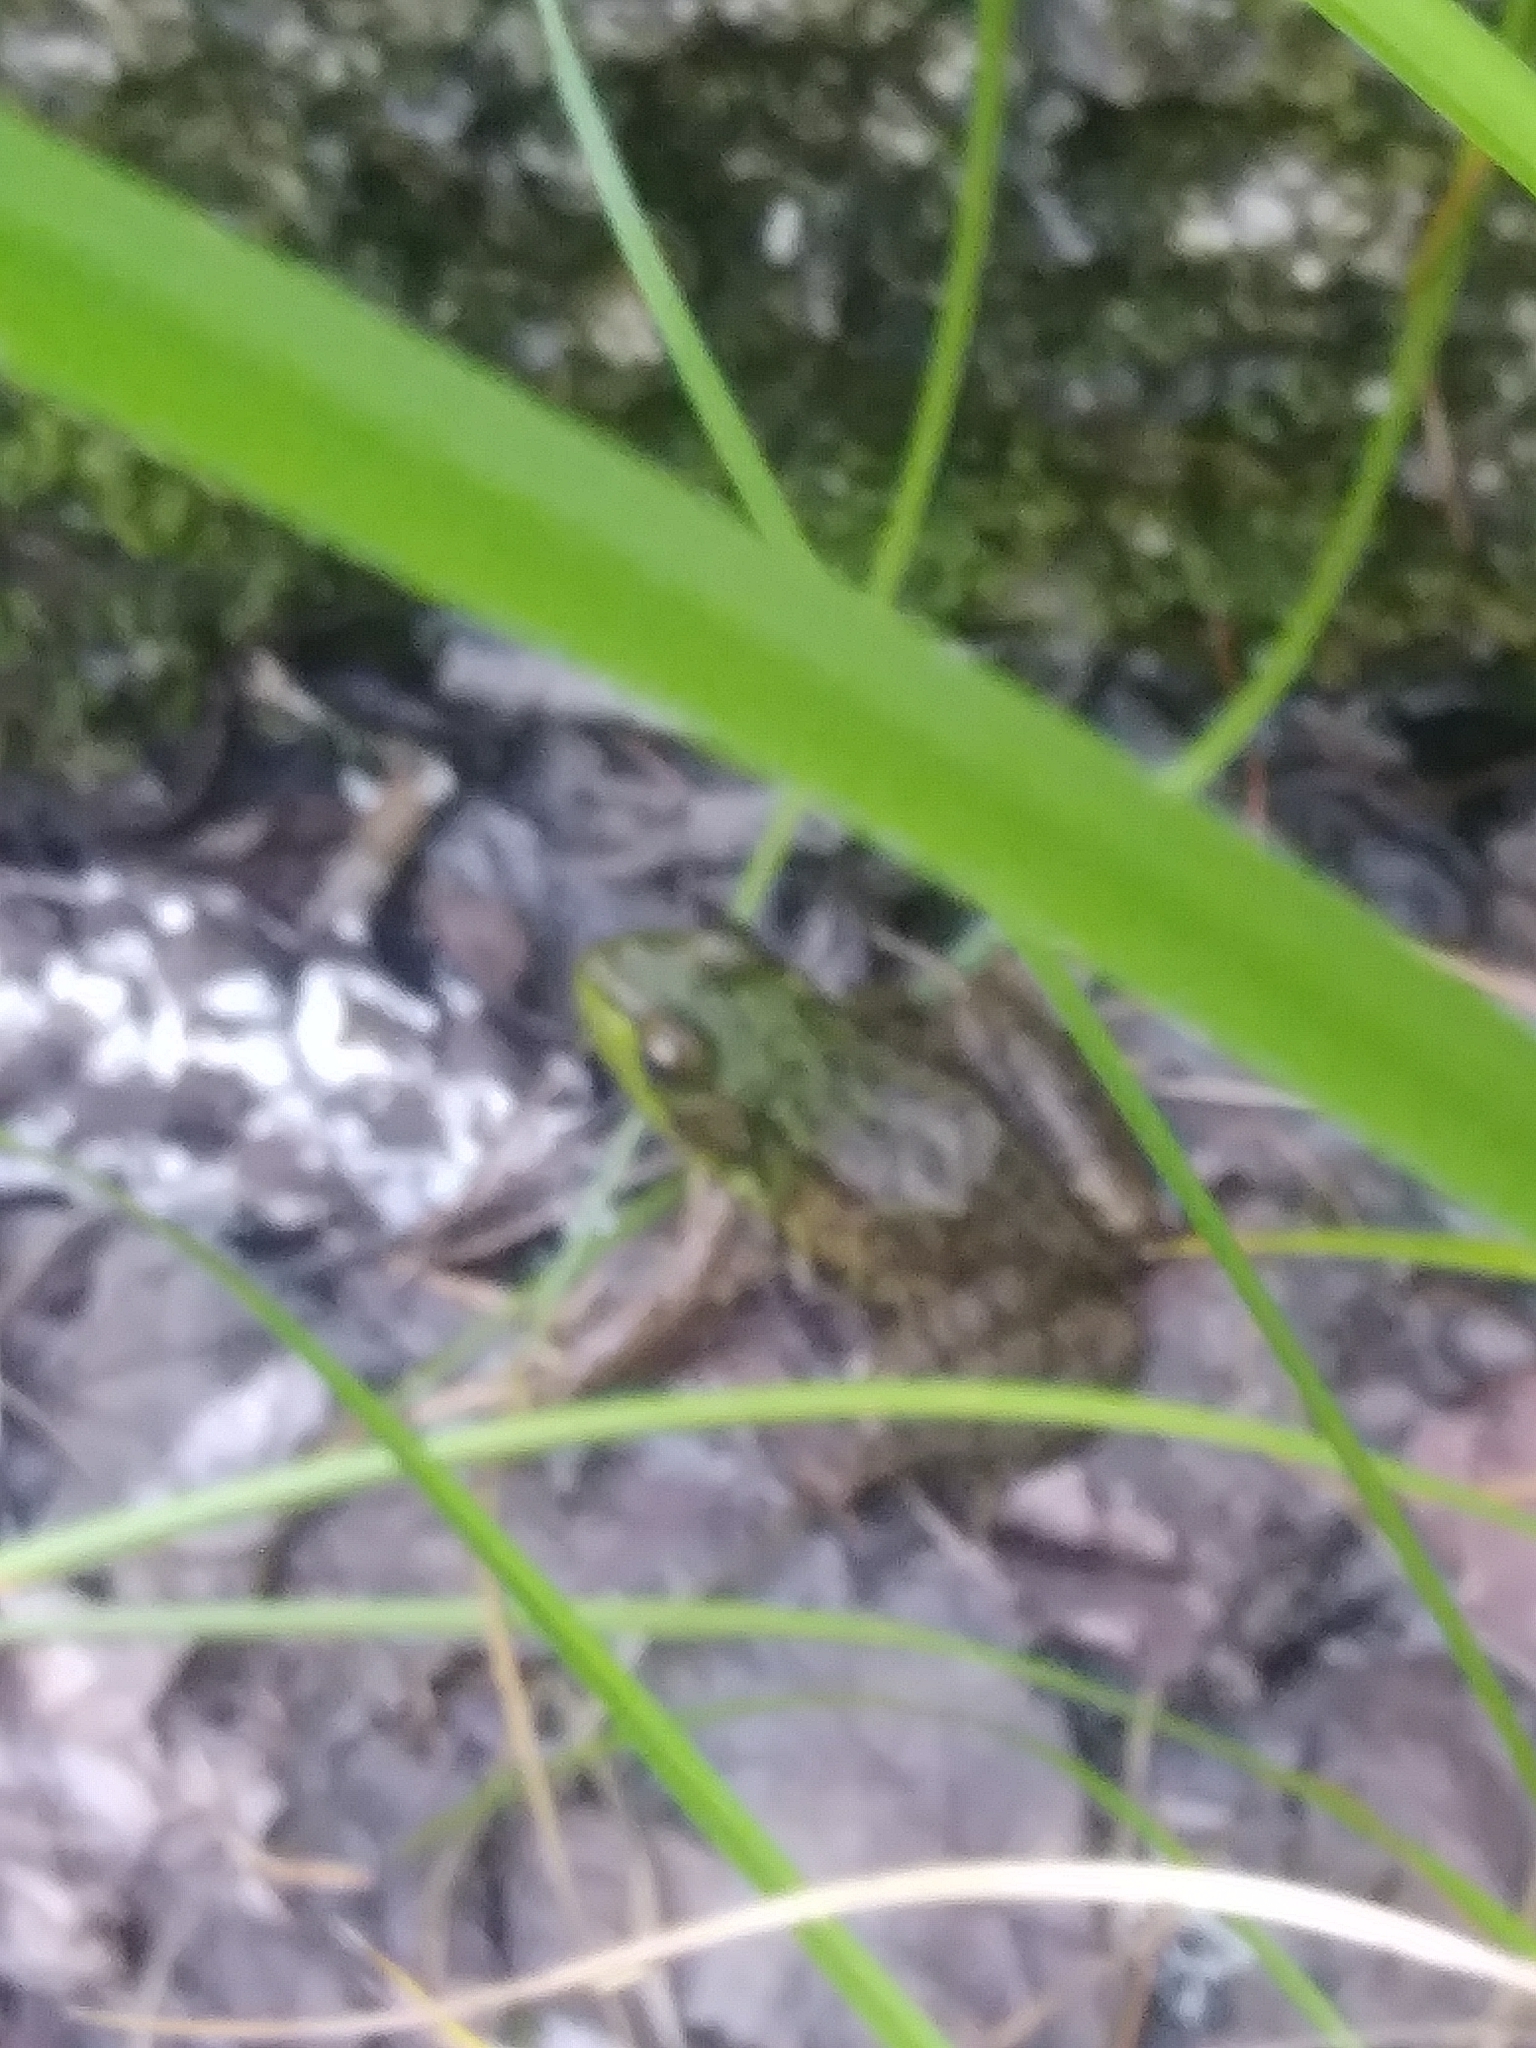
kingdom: Animalia
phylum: Chordata
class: Amphibia
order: Anura
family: Ranidae
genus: Lithobates
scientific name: Lithobates clamitans
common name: Green frog
